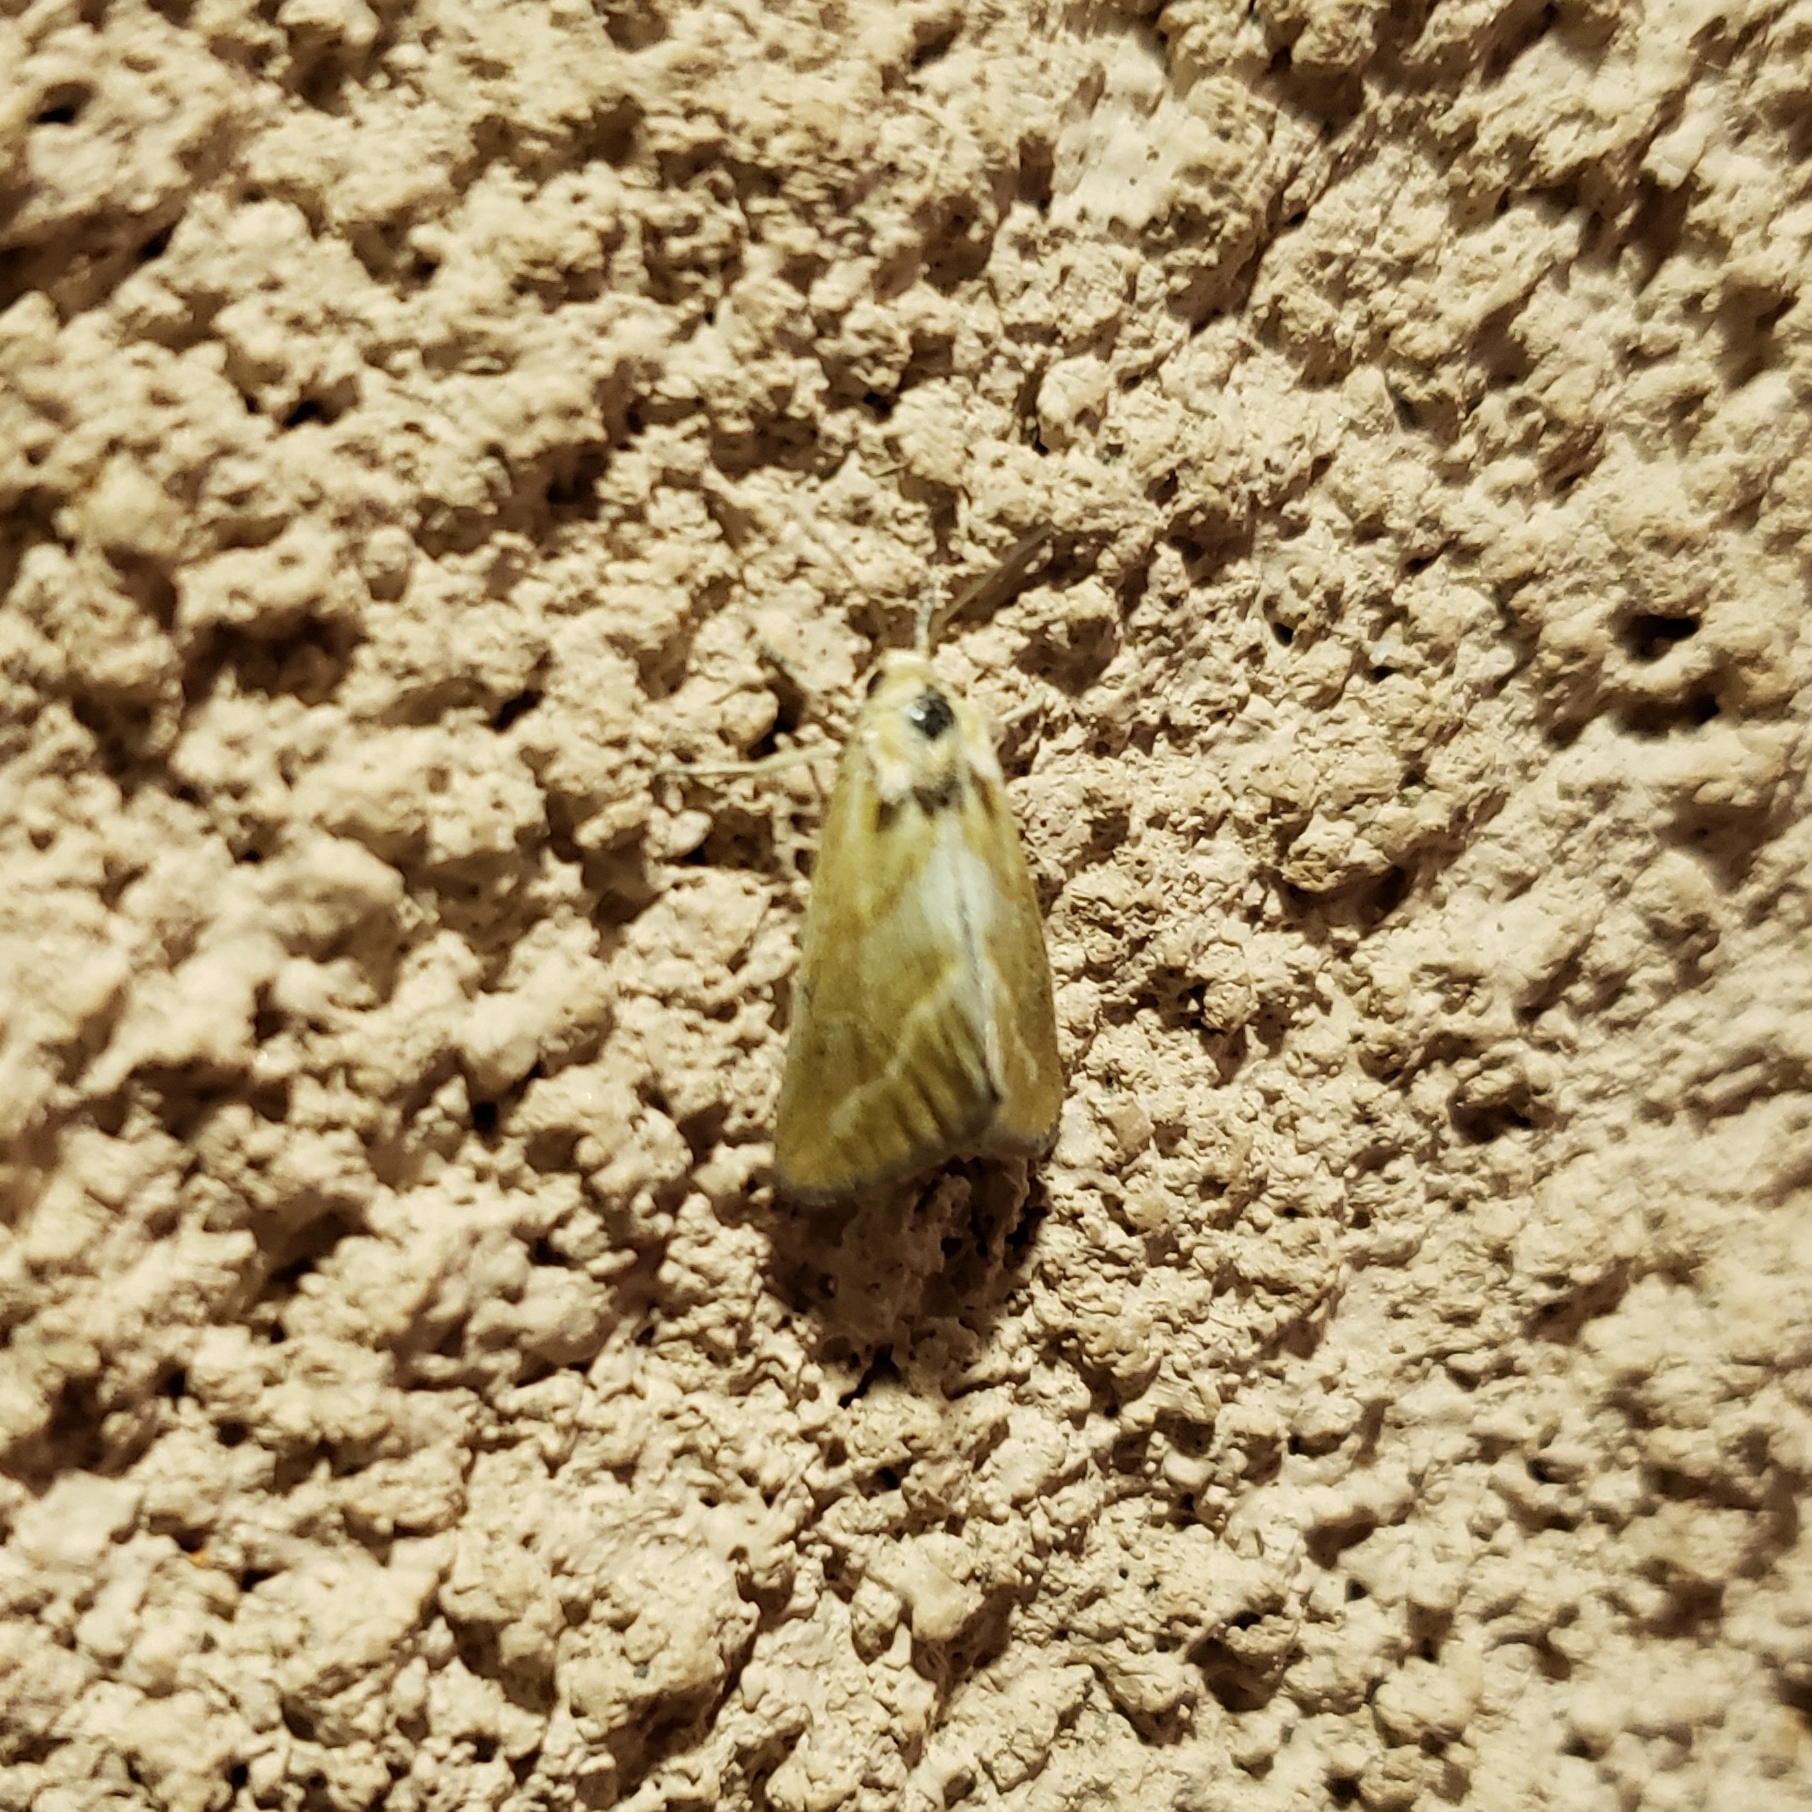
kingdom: Animalia
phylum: Arthropoda
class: Insecta
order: Lepidoptera
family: Noctuidae
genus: Lineostriastiria
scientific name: Lineostriastiria hutsoni
